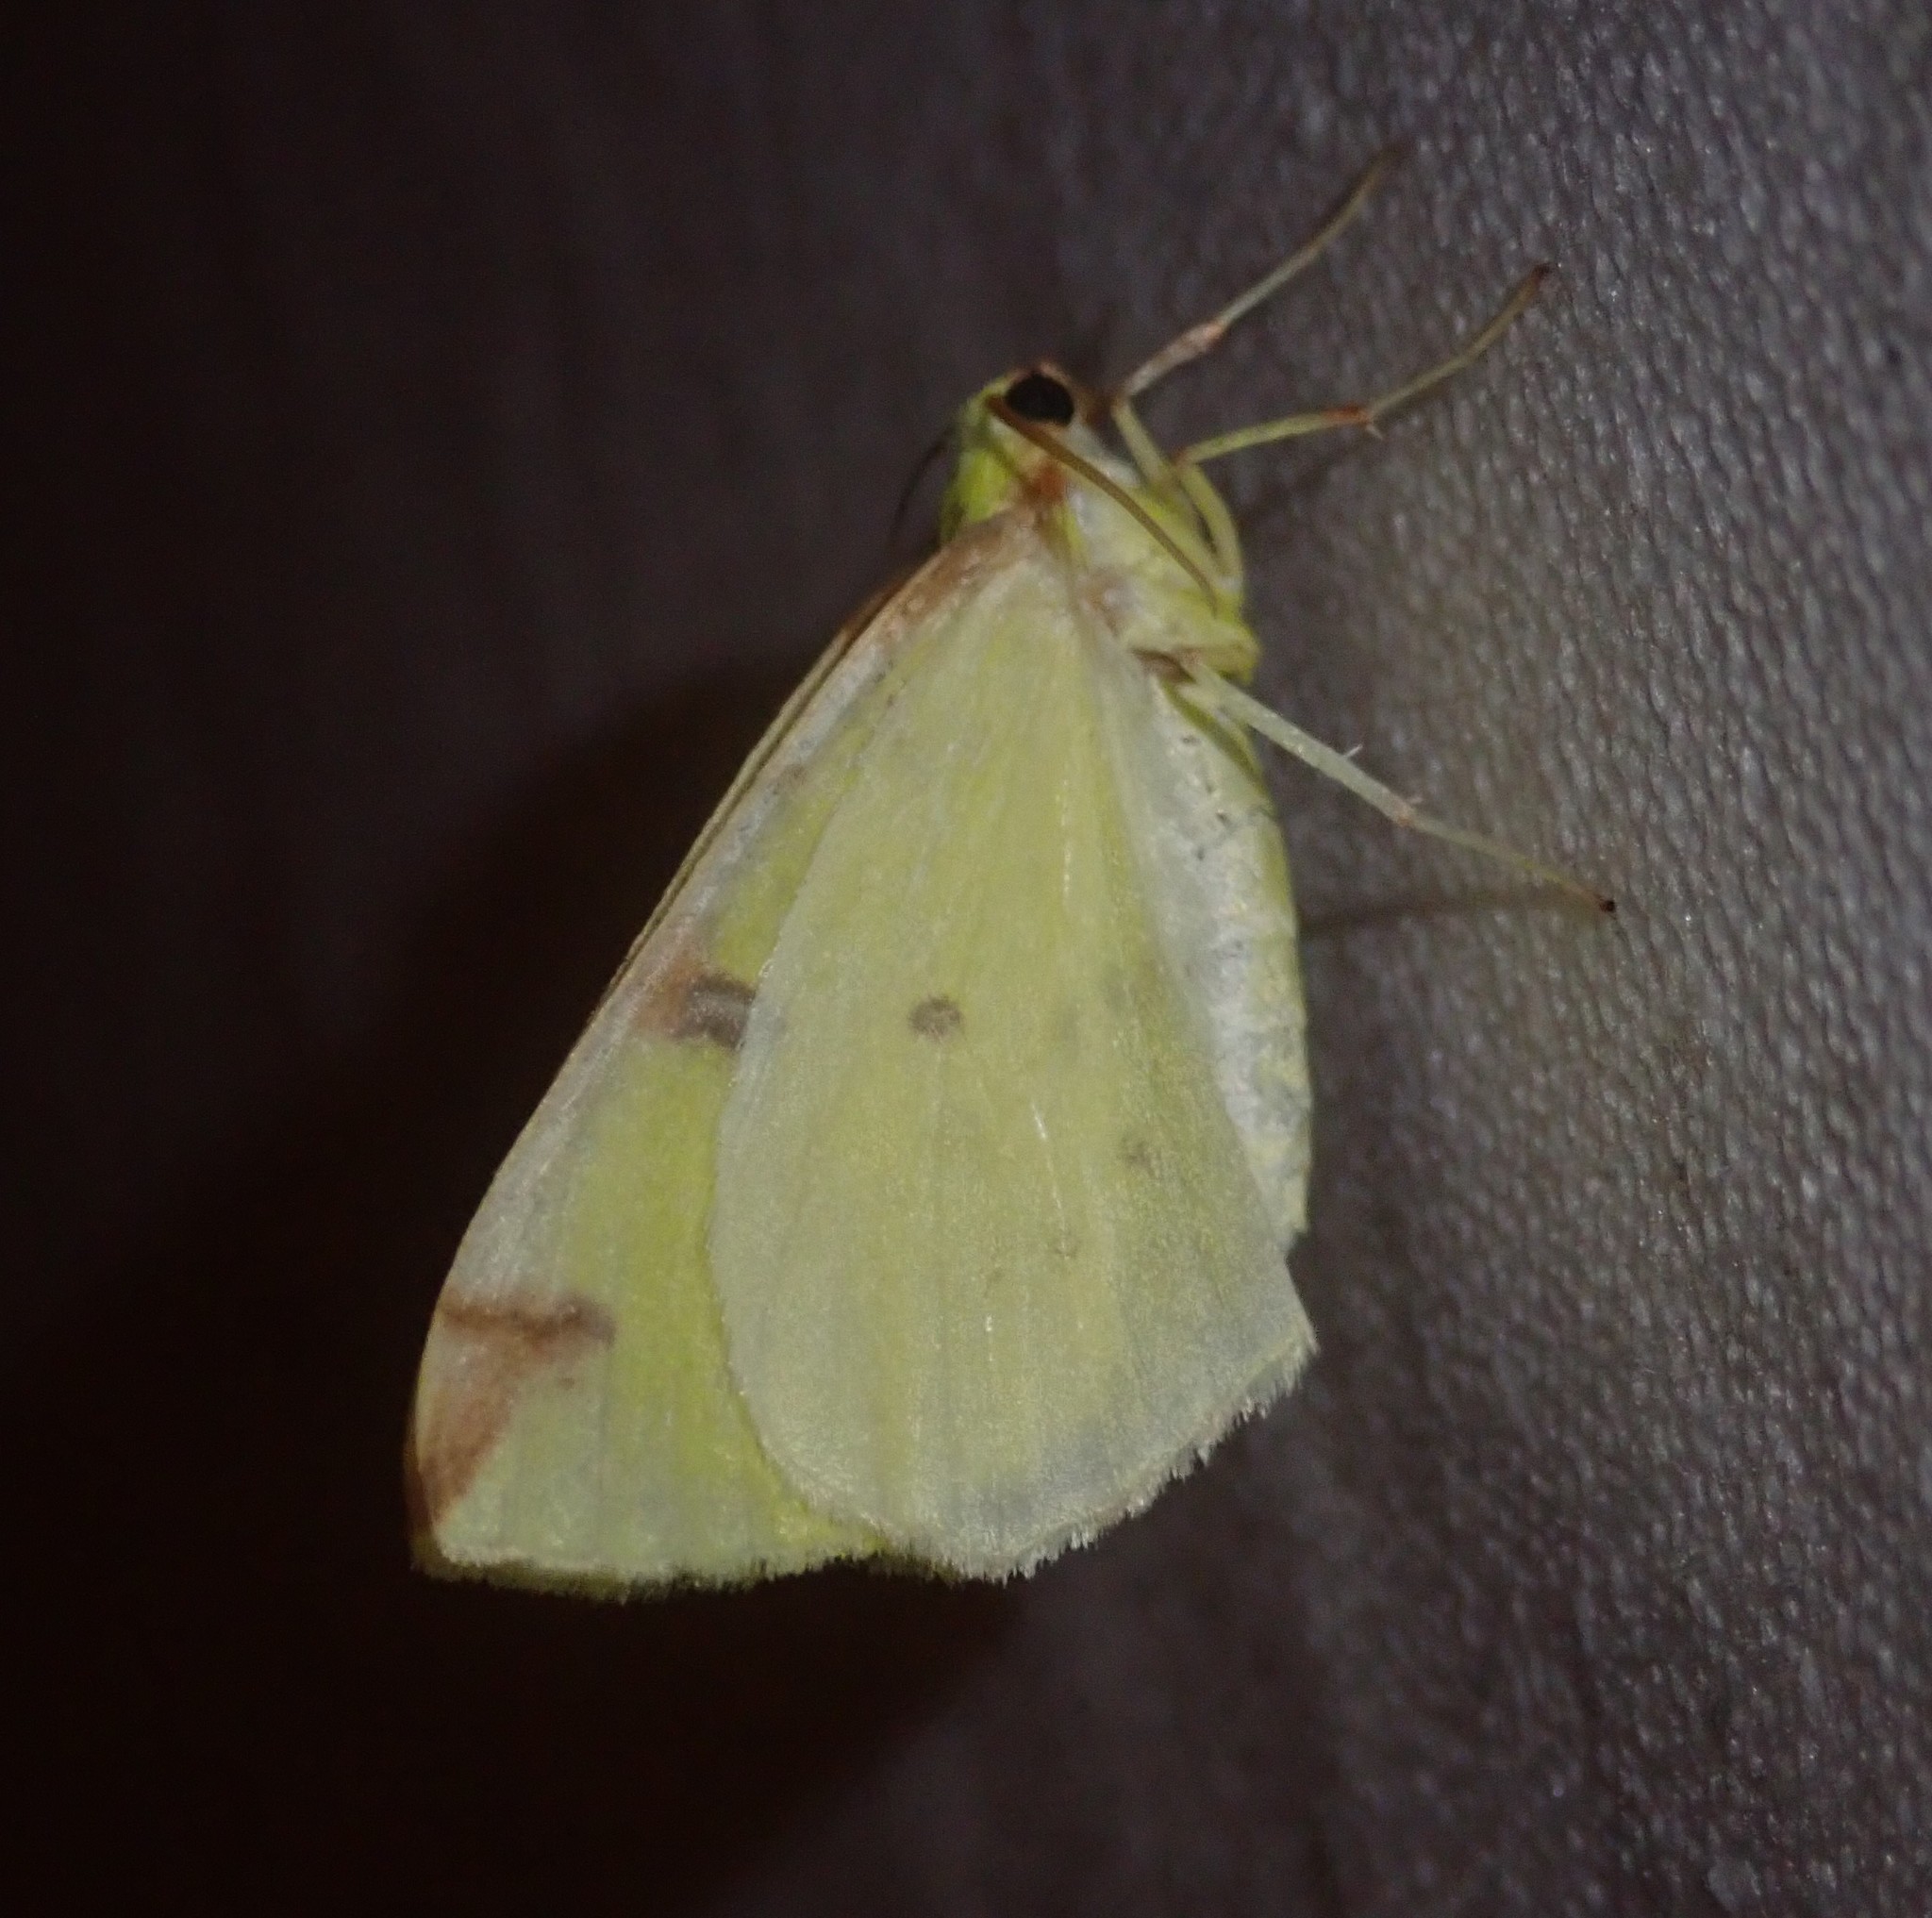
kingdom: Animalia
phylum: Arthropoda
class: Insecta
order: Lepidoptera
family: Geometridae
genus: Opisthograptis
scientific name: Opisthograptis luteolata
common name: Brimstone moth
